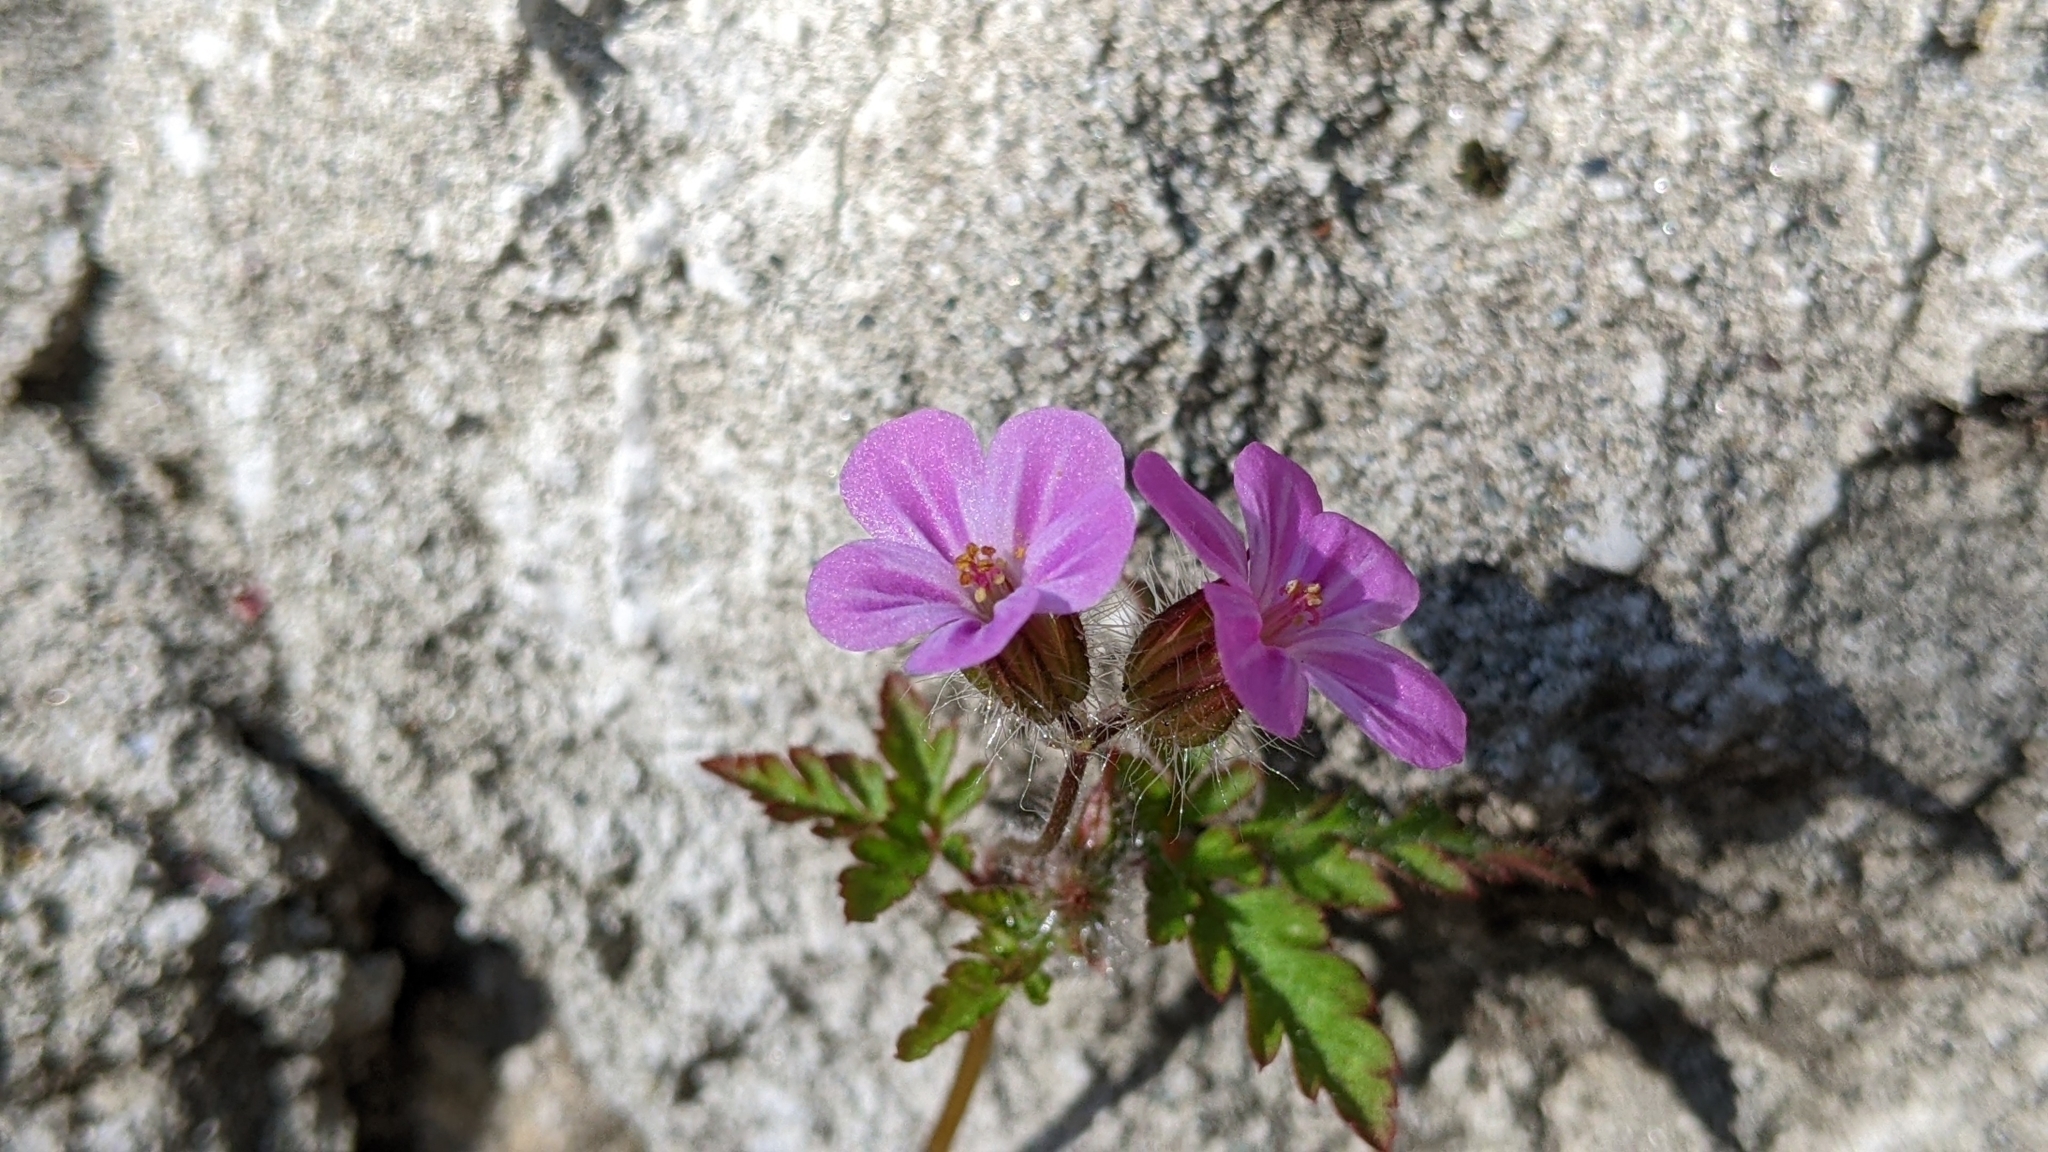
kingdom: Plantae
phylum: Tracheophyta
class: Magnoliopsida
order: Geraniales
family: Geraniaceae
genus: Geranium
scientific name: Geranium robertianum
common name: Herb-robert
